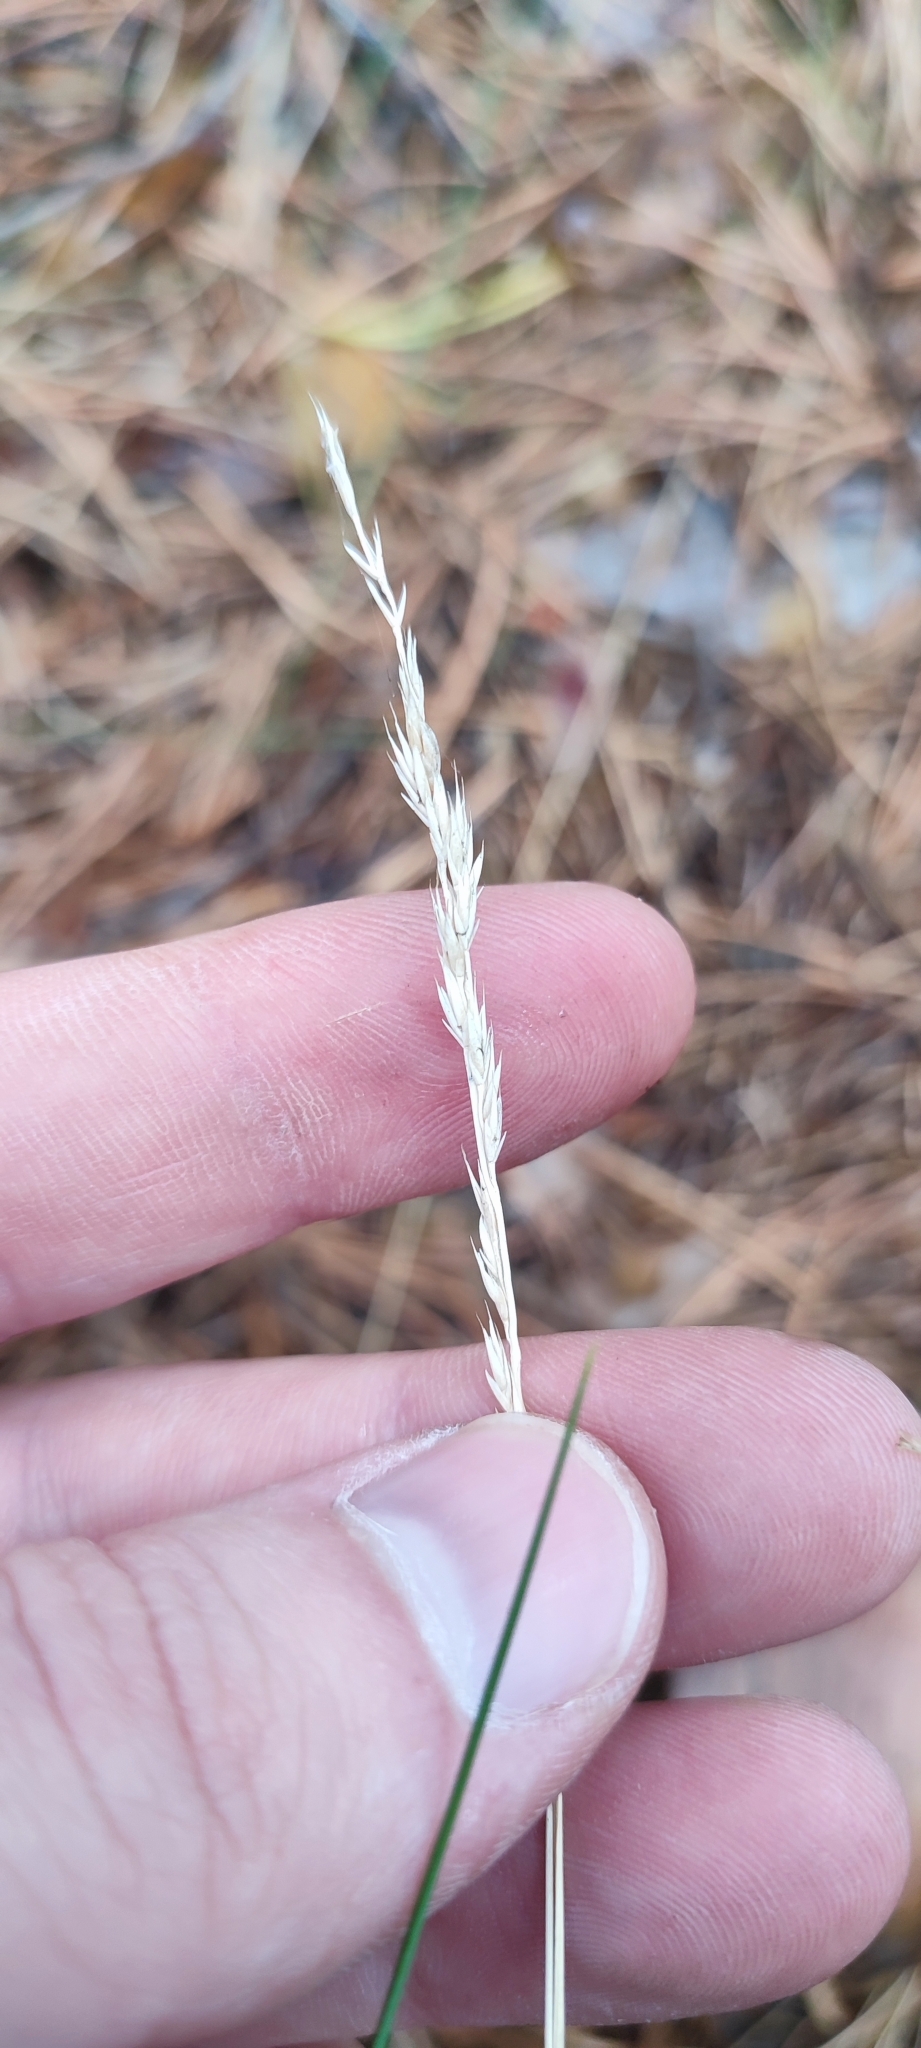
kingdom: Plantae
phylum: Tracheophyta
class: Liliopsida
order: Poales
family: Poaceae
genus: Koeleria
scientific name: Koeleria glauca
